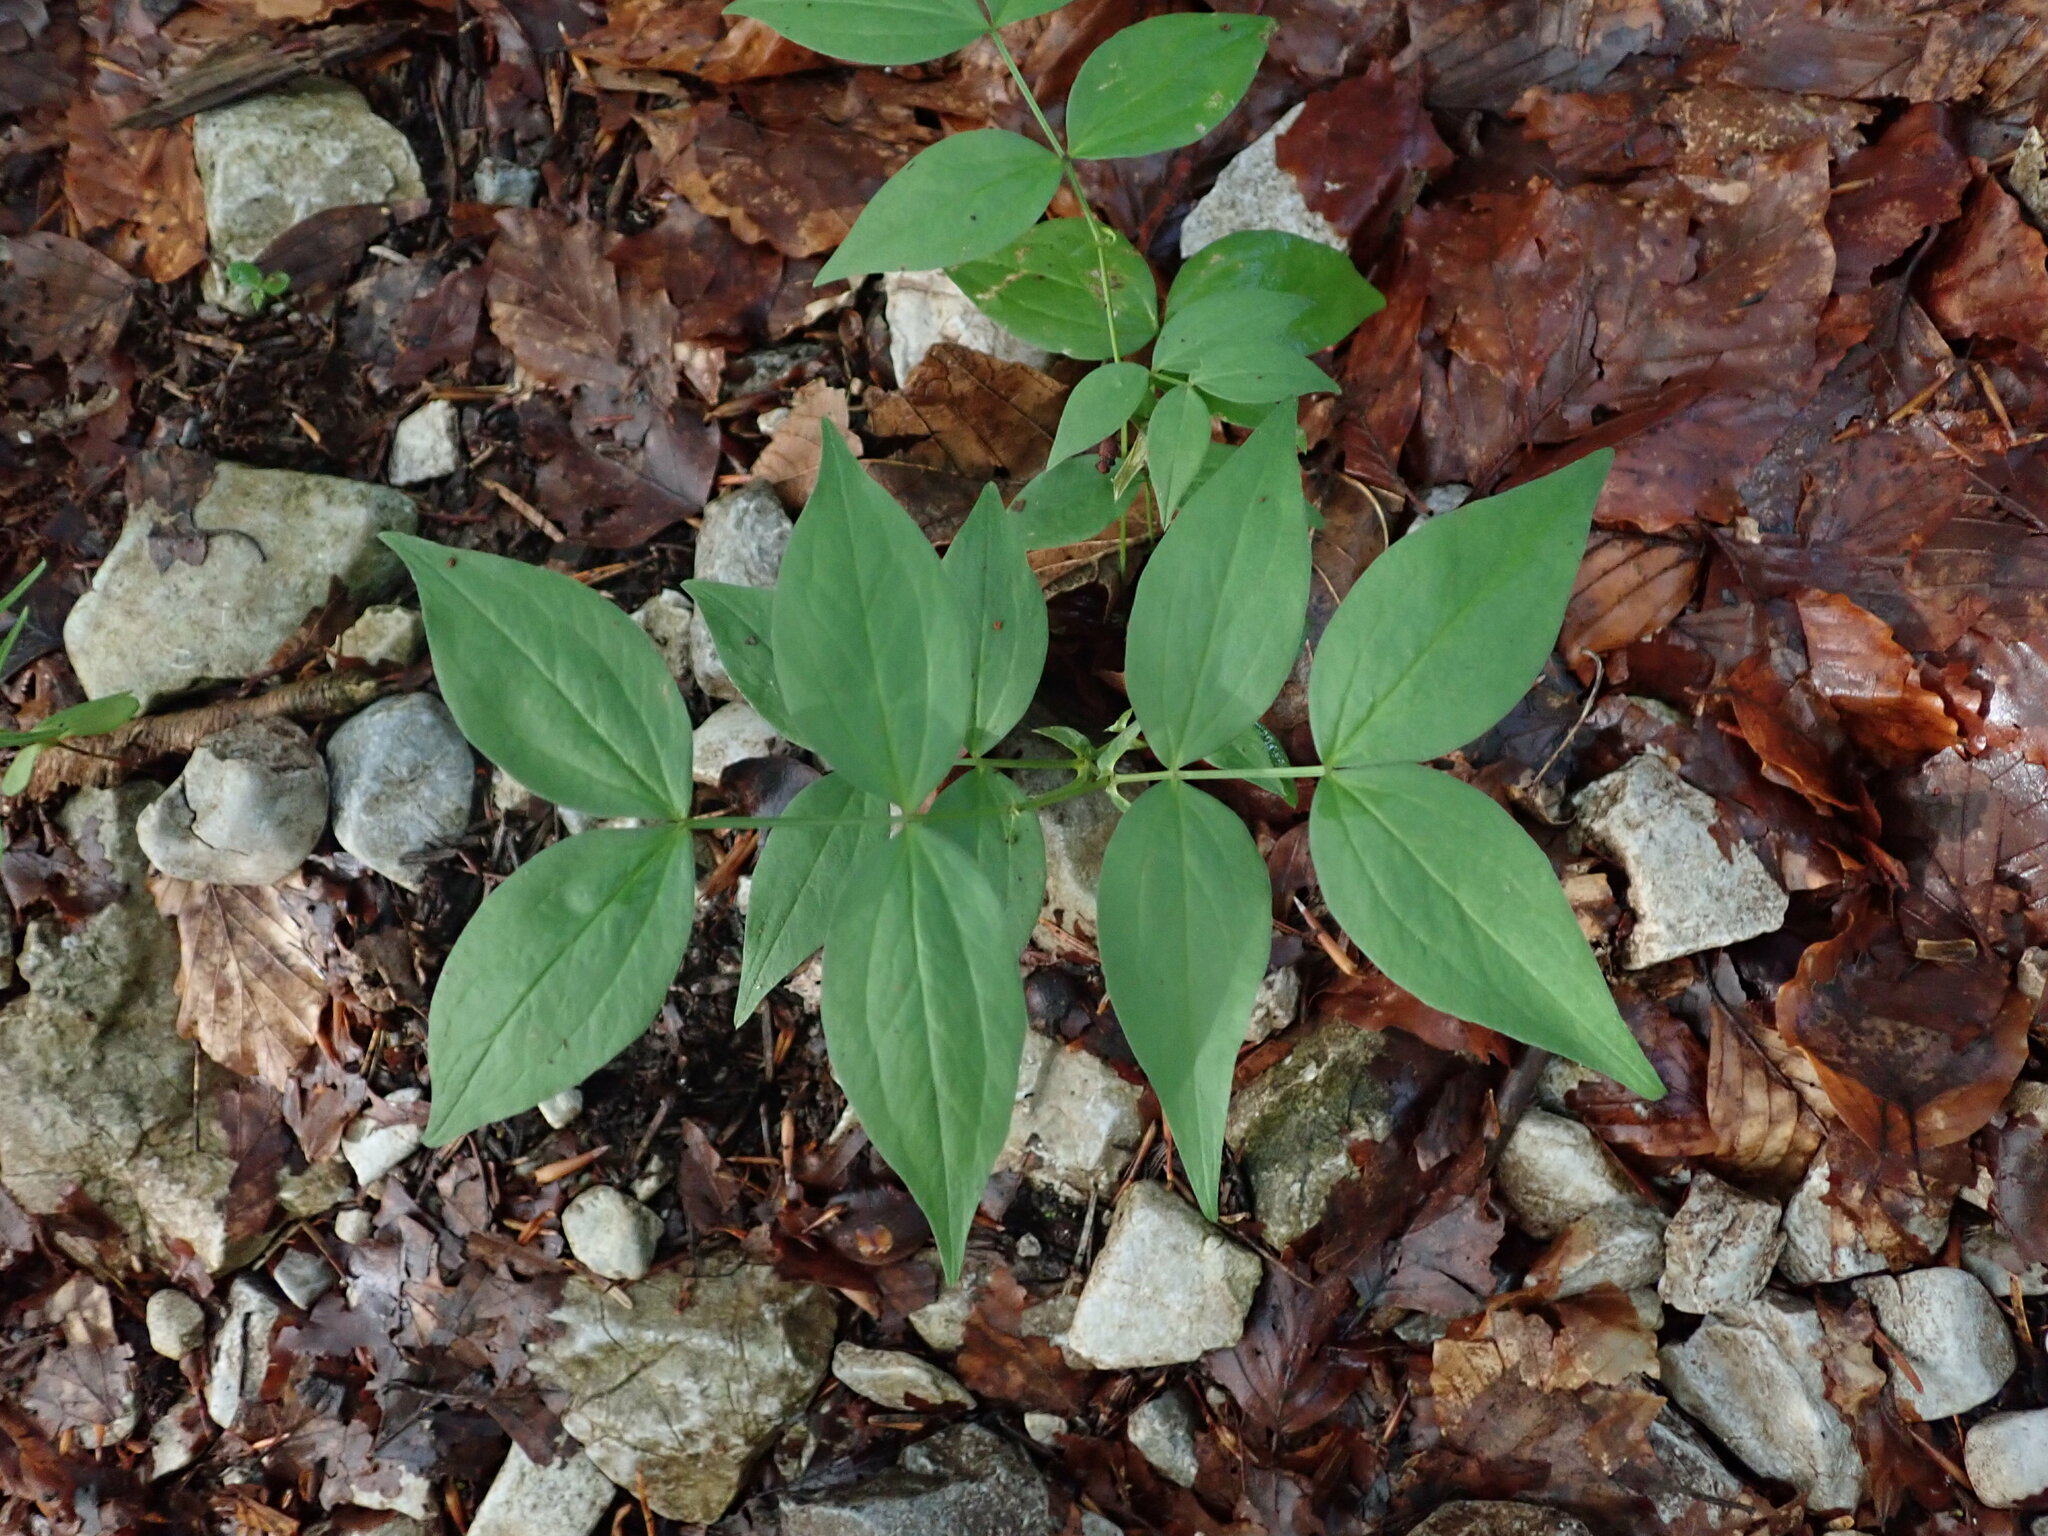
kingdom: Plantae
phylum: Tracheophyta
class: Magnoliopsida
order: Fabales
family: Fabaceae
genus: Lathyrus
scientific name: Lathyrus vernus
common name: Spring pea
